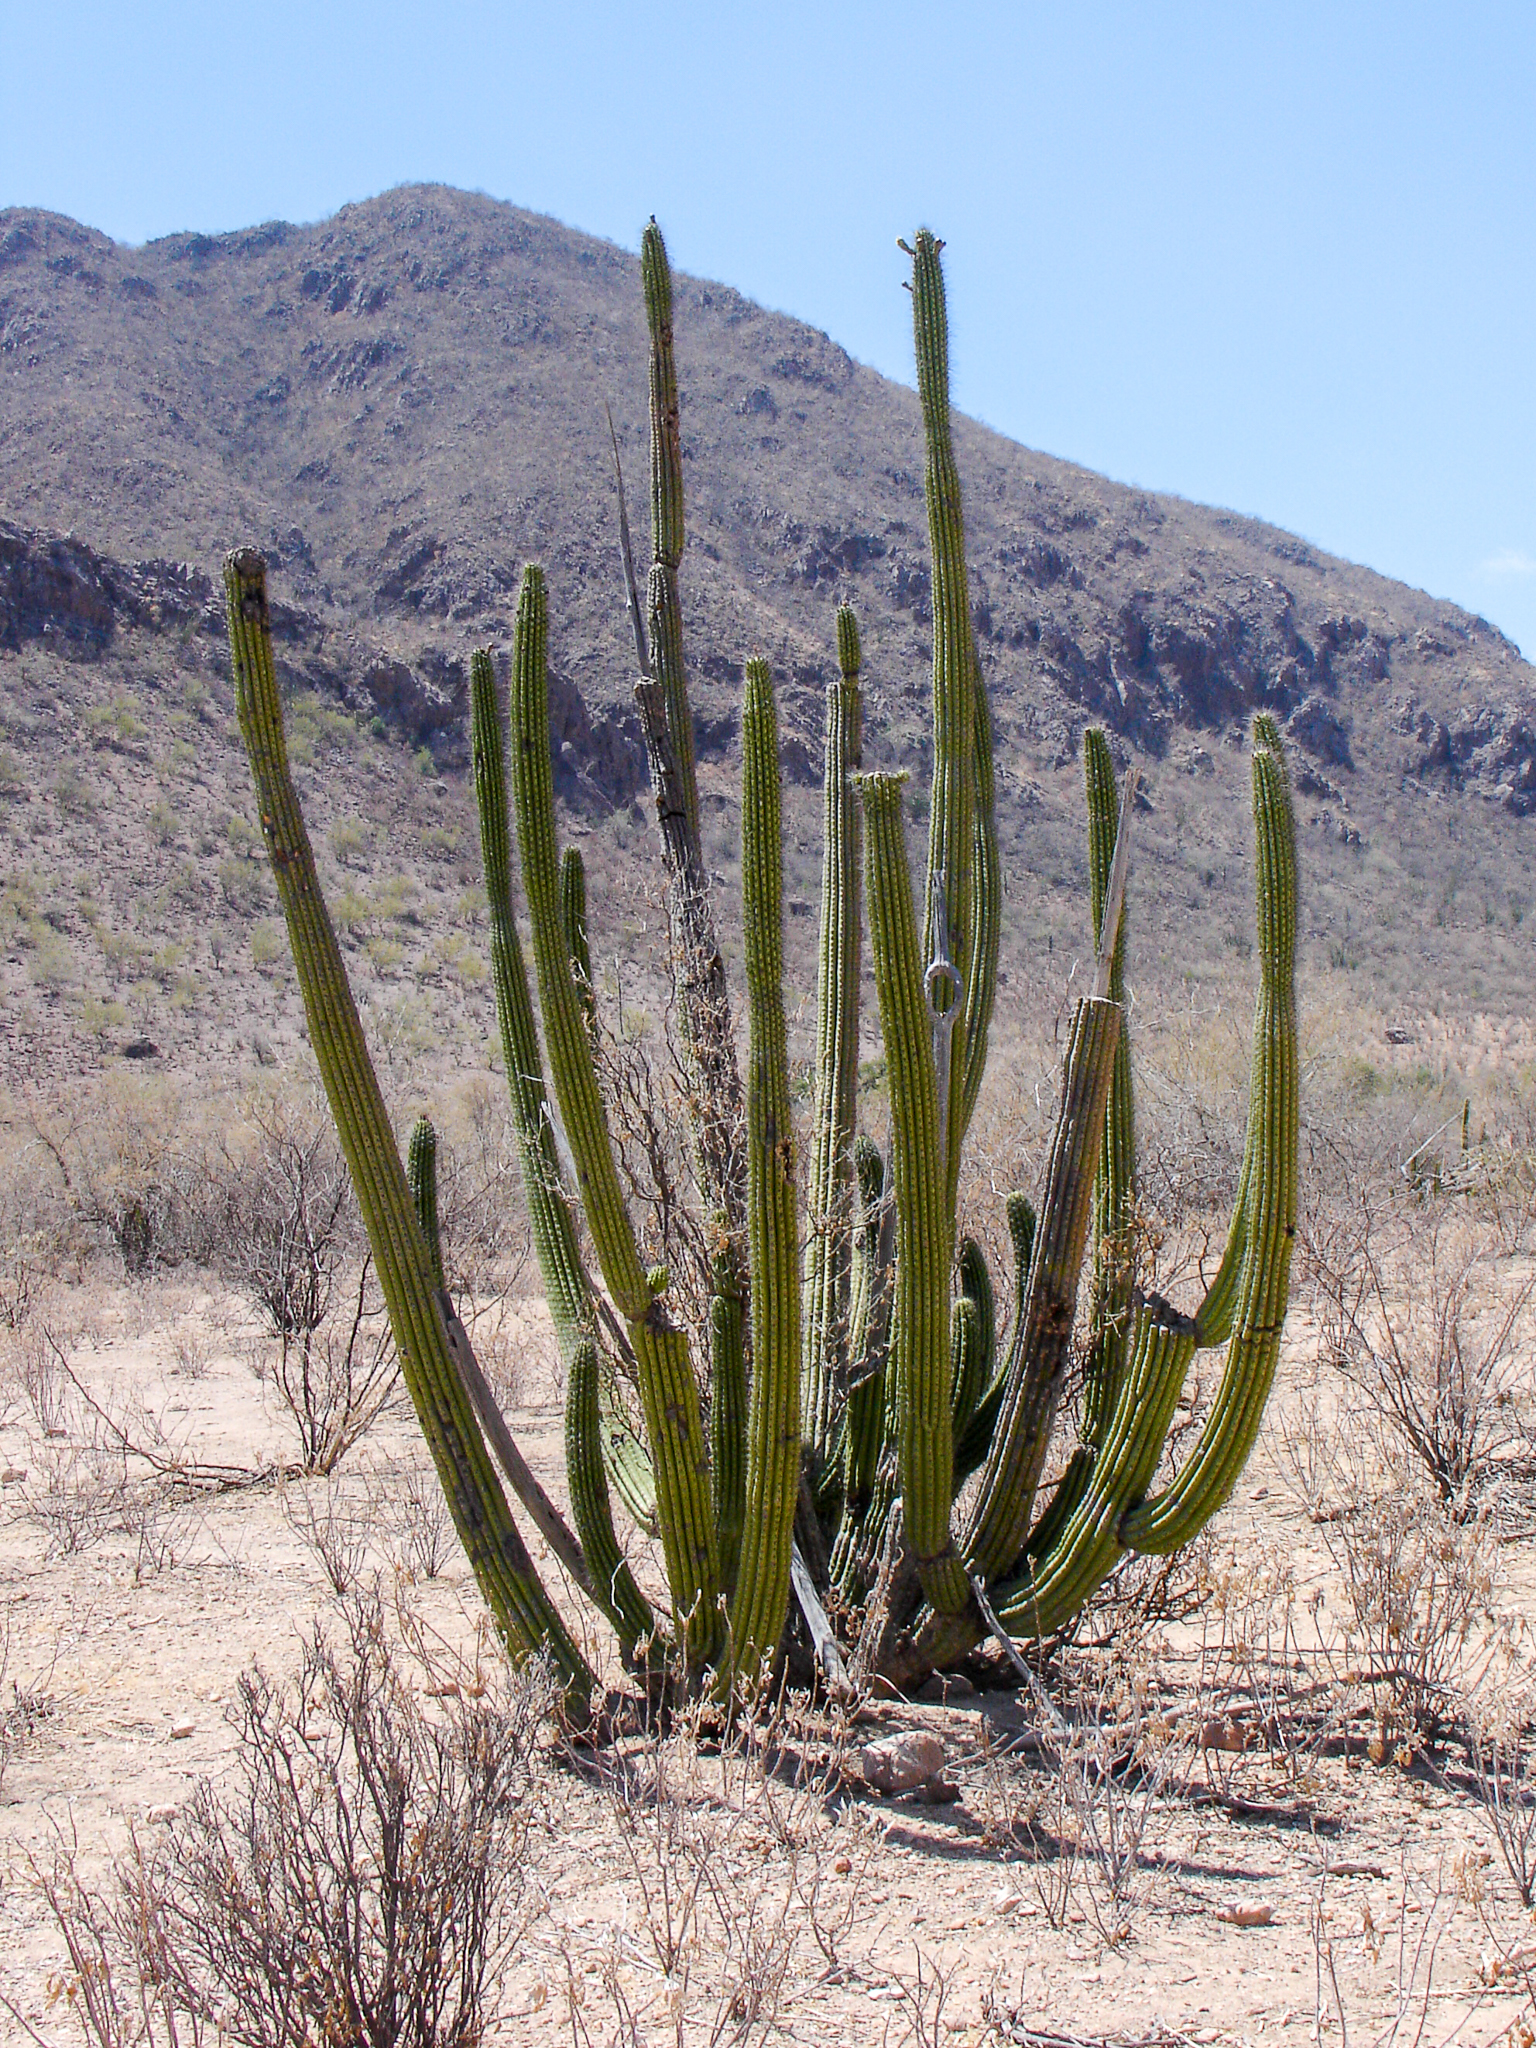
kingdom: Plantae
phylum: Tracheophyta
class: Magnoliopsida
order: Caryophyllales
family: Cactaceae
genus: Stenocereus
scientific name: Stenocereus thurberi
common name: Organ pipe cactus
